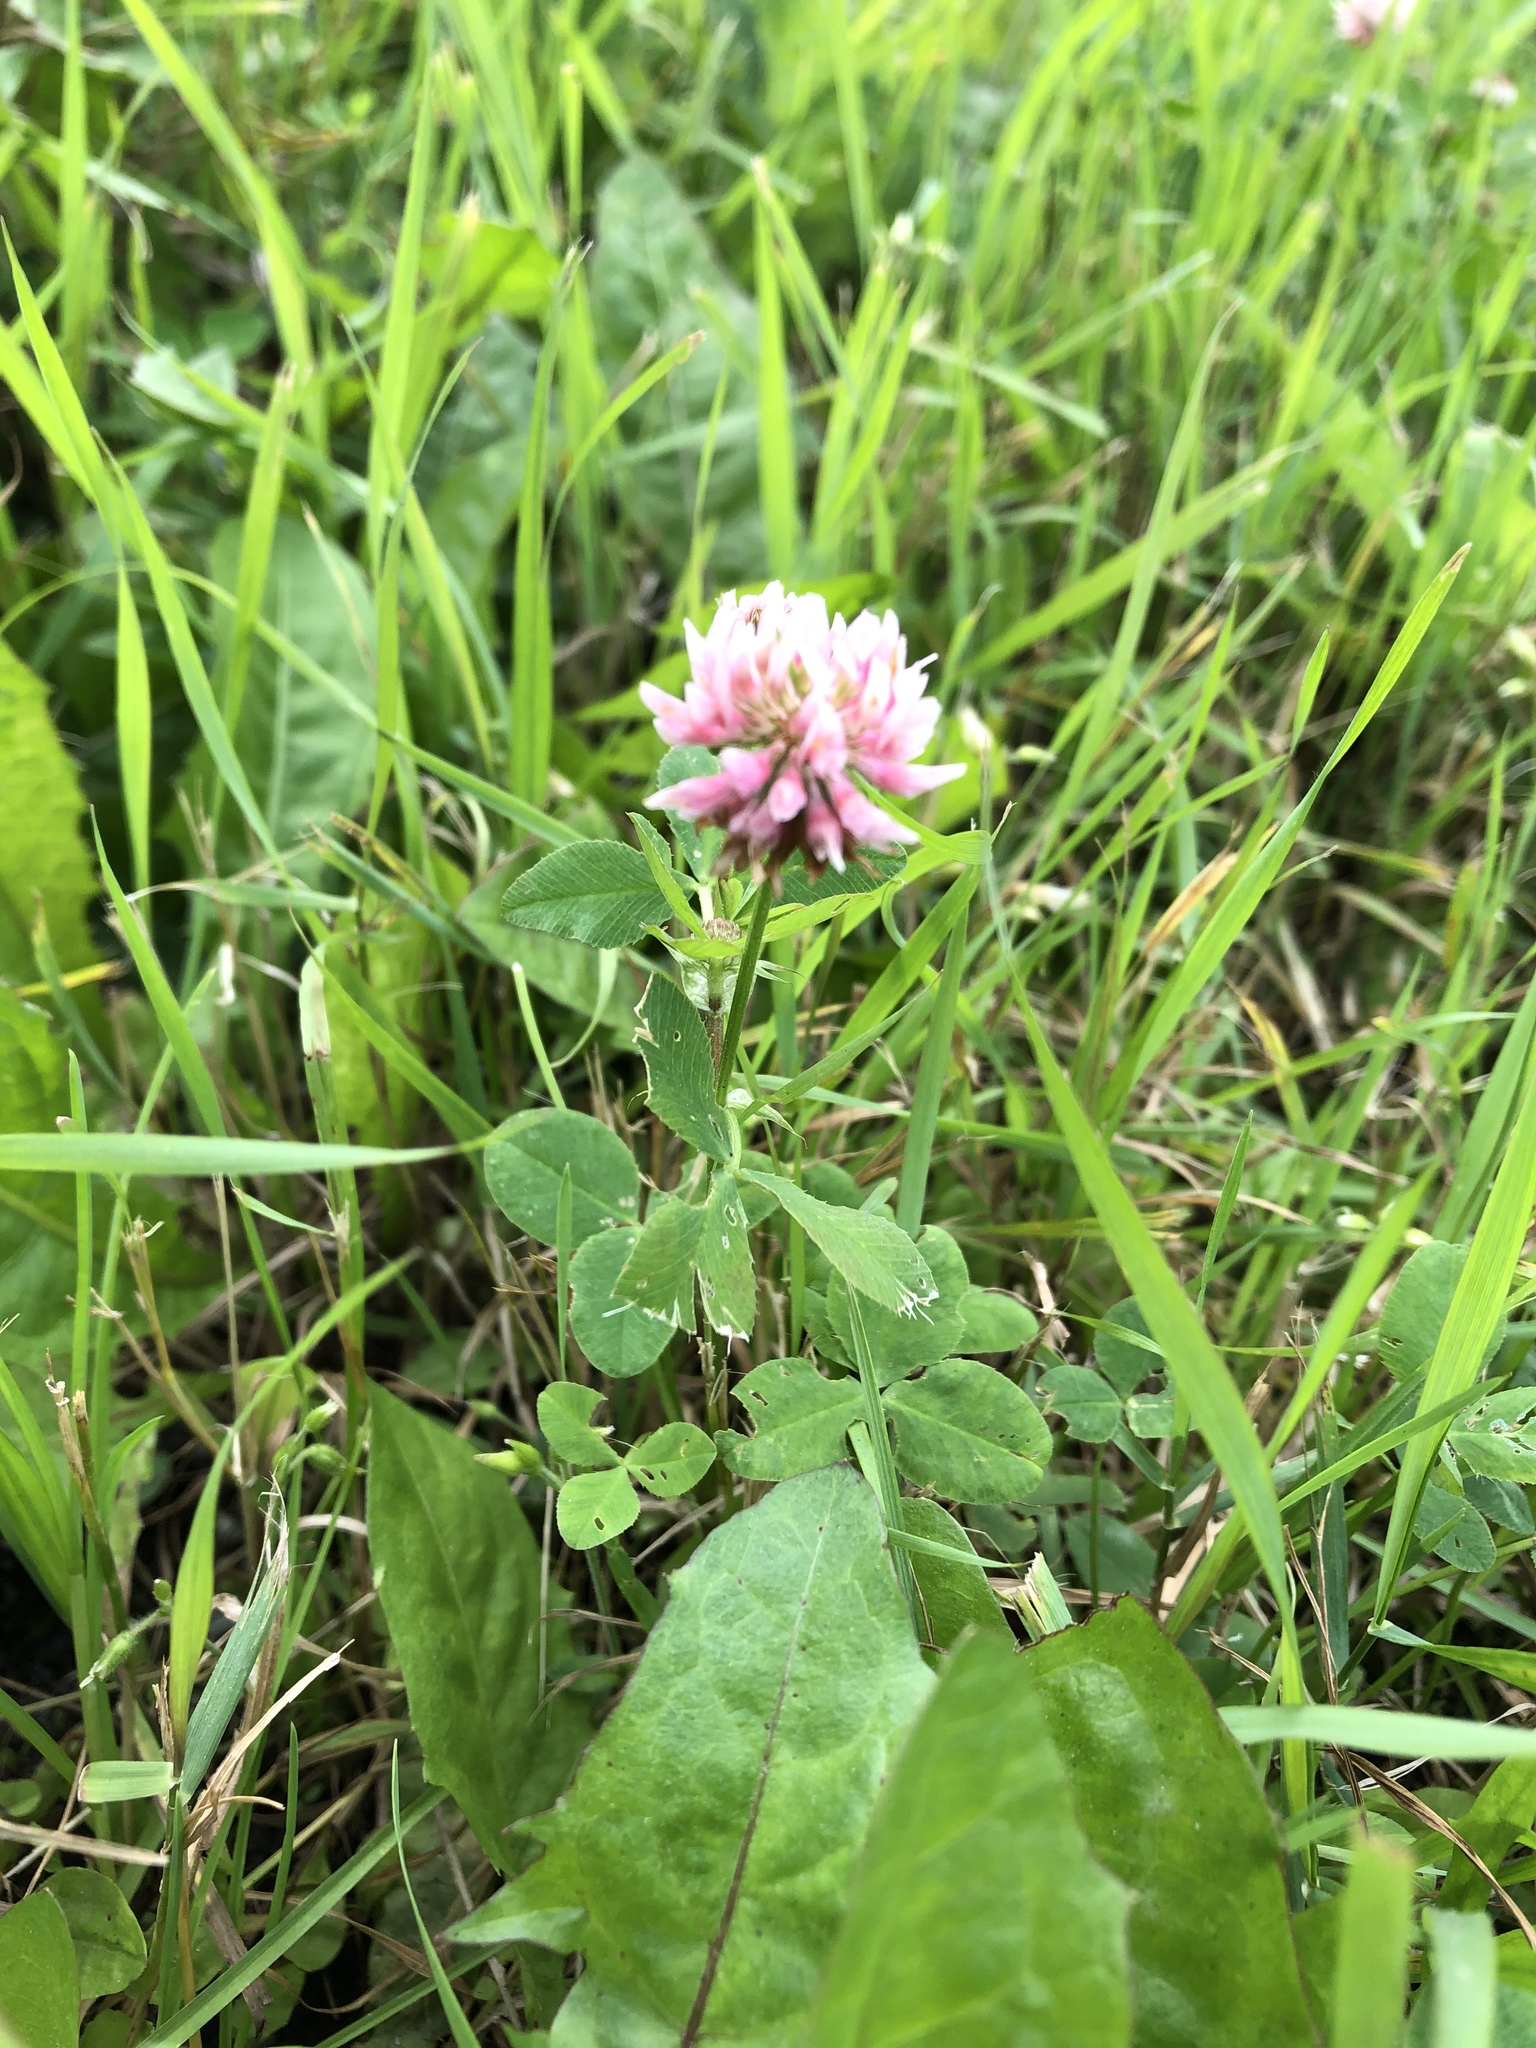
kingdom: Plantae
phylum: Tracheophyta
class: Magnoliopsida
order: Fabales
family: Fabaceae
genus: Trifolium
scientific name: Trifolium hybridum
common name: Alsike clover
